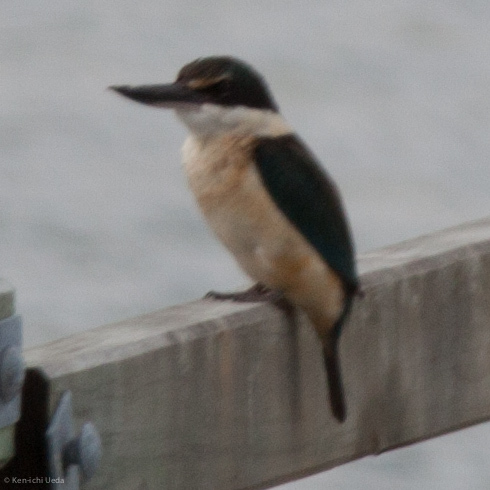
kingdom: Animalia
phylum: Chordata
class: Aves
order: Coraciiformes
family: Alcedinidae
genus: Todiramphus
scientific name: Todiramphus sanctus
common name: Sacred kingfisher
